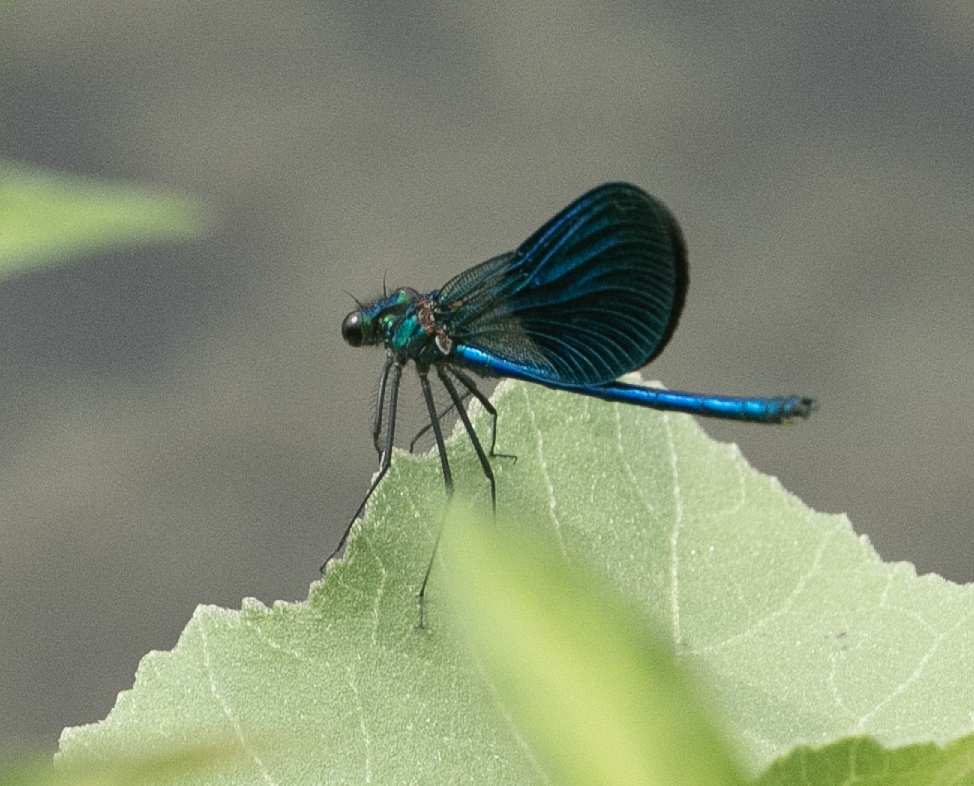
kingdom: Animalia
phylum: Arthropoda
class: Insecta
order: Odonata
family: Calopterygidae
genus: Calopteryx
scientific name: Calopteryx splendens
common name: Banded demoiselle
